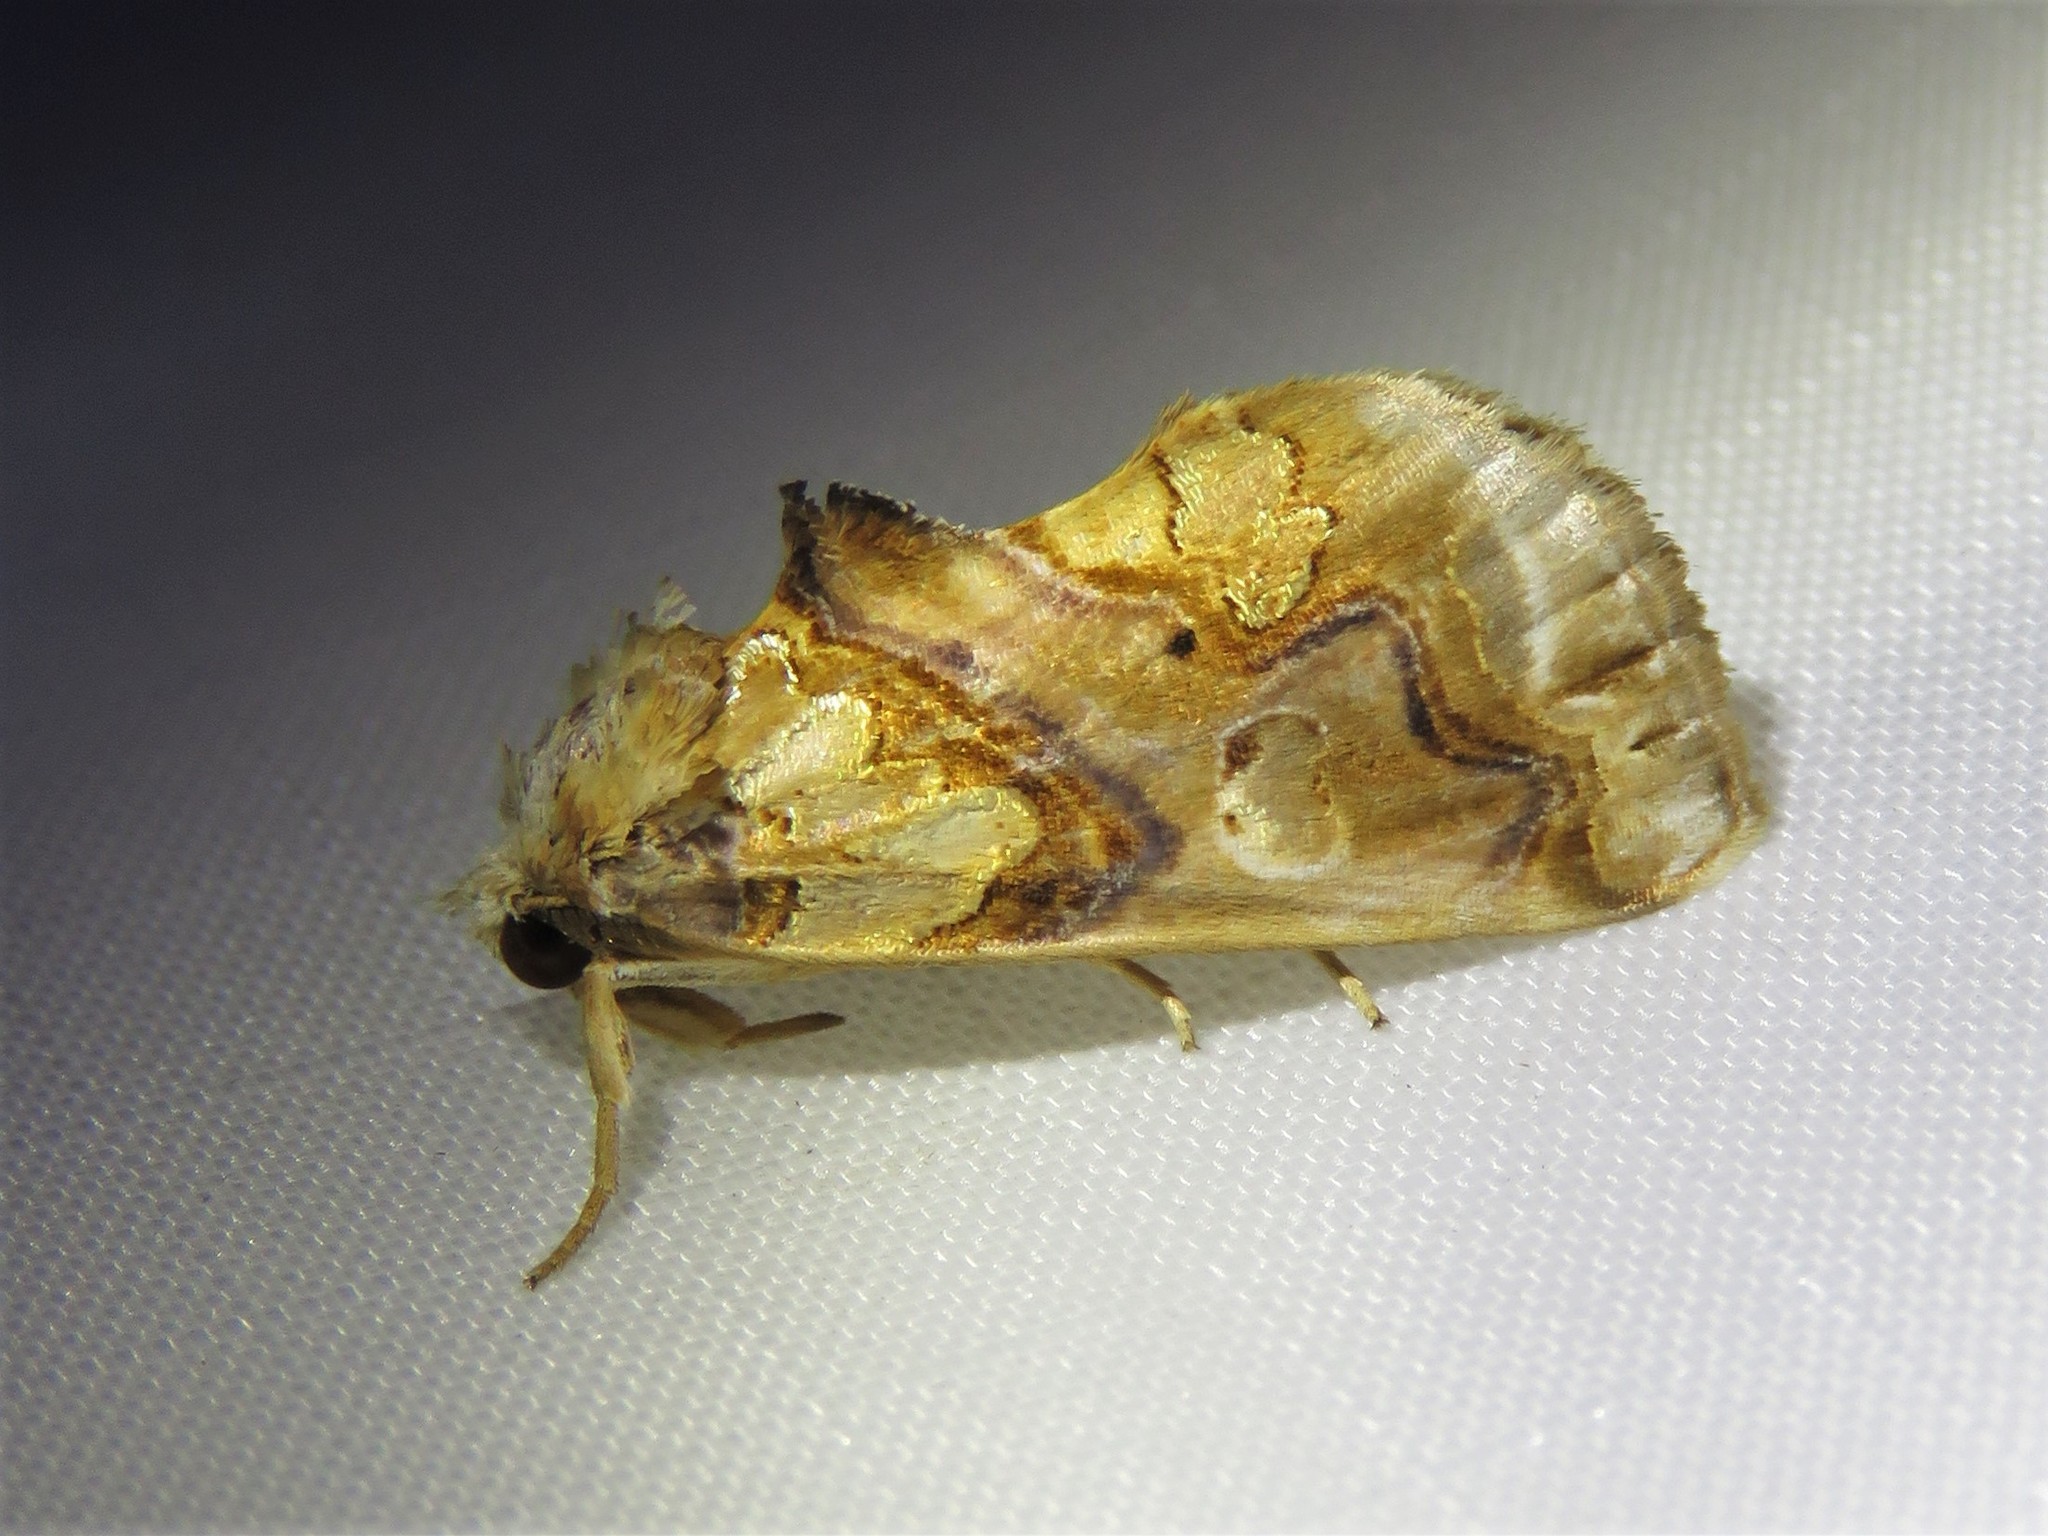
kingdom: Animalia
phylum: Arthropoda
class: Insecta
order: Lepidoptera
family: Erebidae
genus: Plusiodonta
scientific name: Plusiodonta compressipalpis
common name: Moonseed moth
